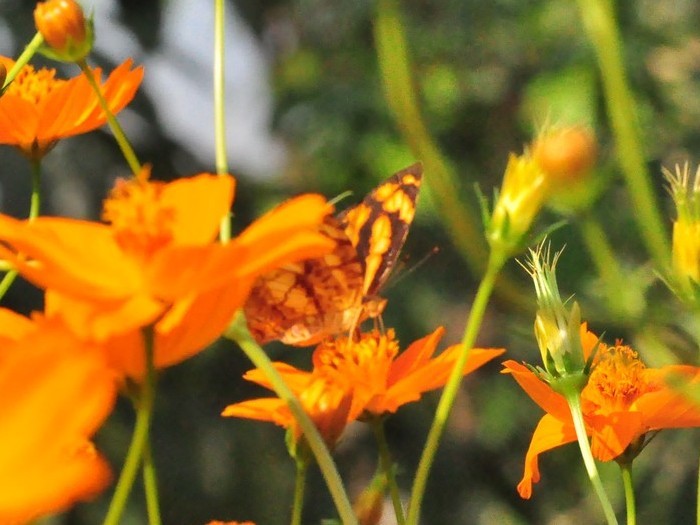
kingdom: Animalia
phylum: Arthropoda
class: Insecta
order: Lepidoptera
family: Nymphalidae
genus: Symbrenthia
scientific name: Symbrenthia hypselis
